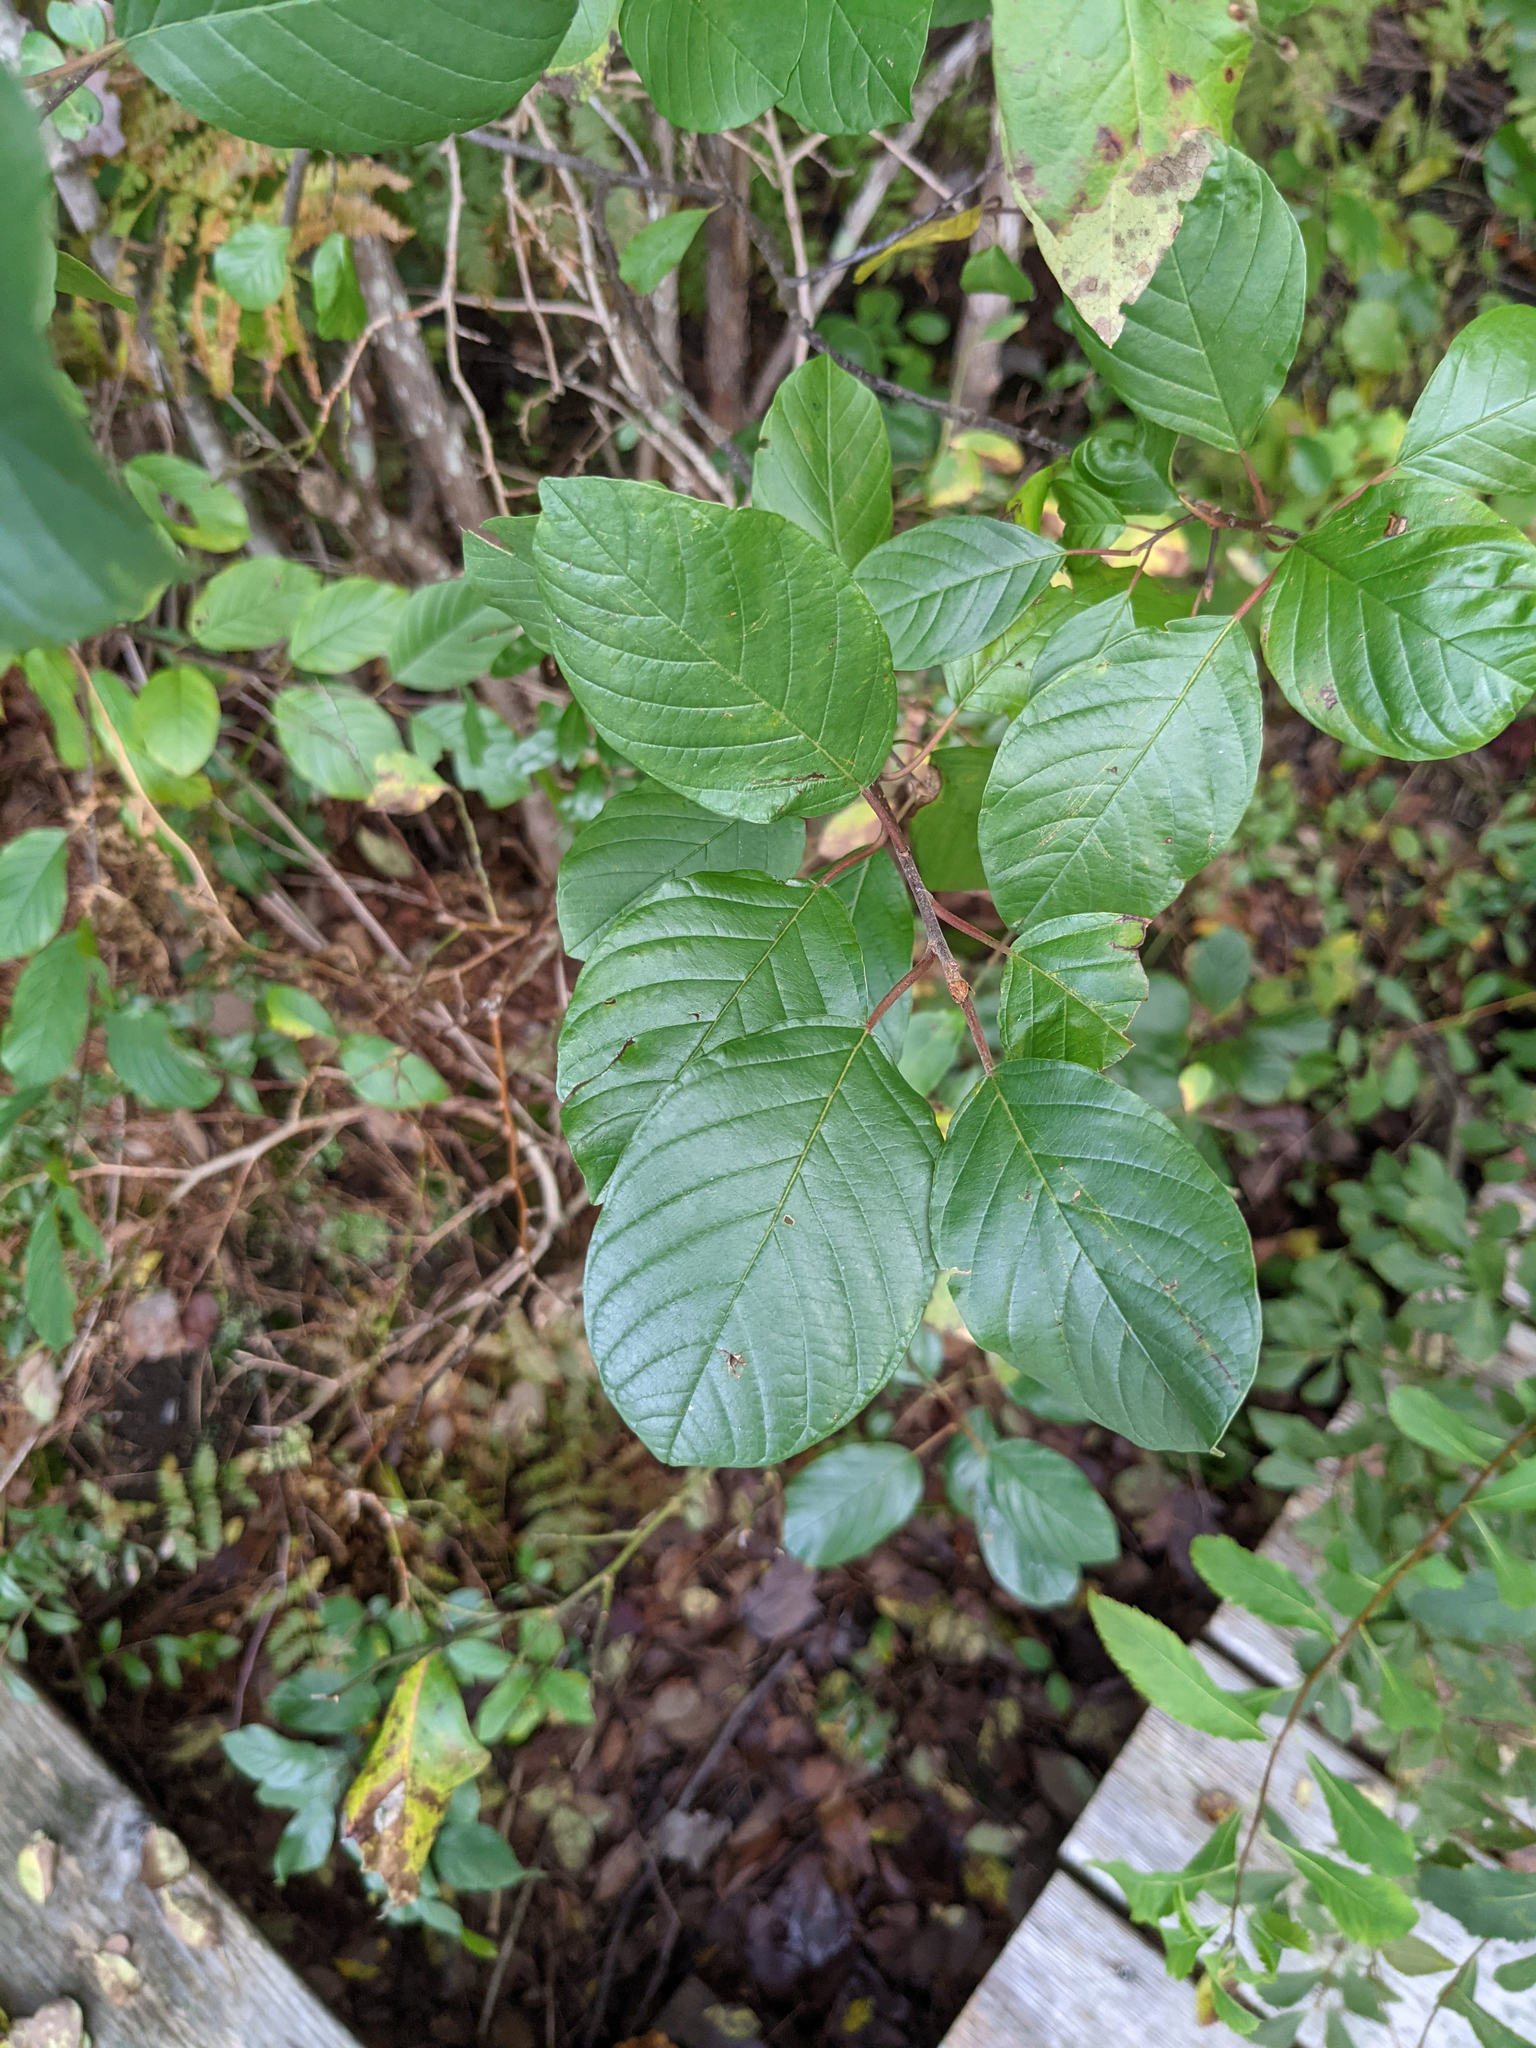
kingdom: Plantae
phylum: Tracheophyta
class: Magnoliopsida
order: Rosales
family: Rhamnaceae
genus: Frangula
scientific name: Frangula alnus
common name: Alder buckthorn
